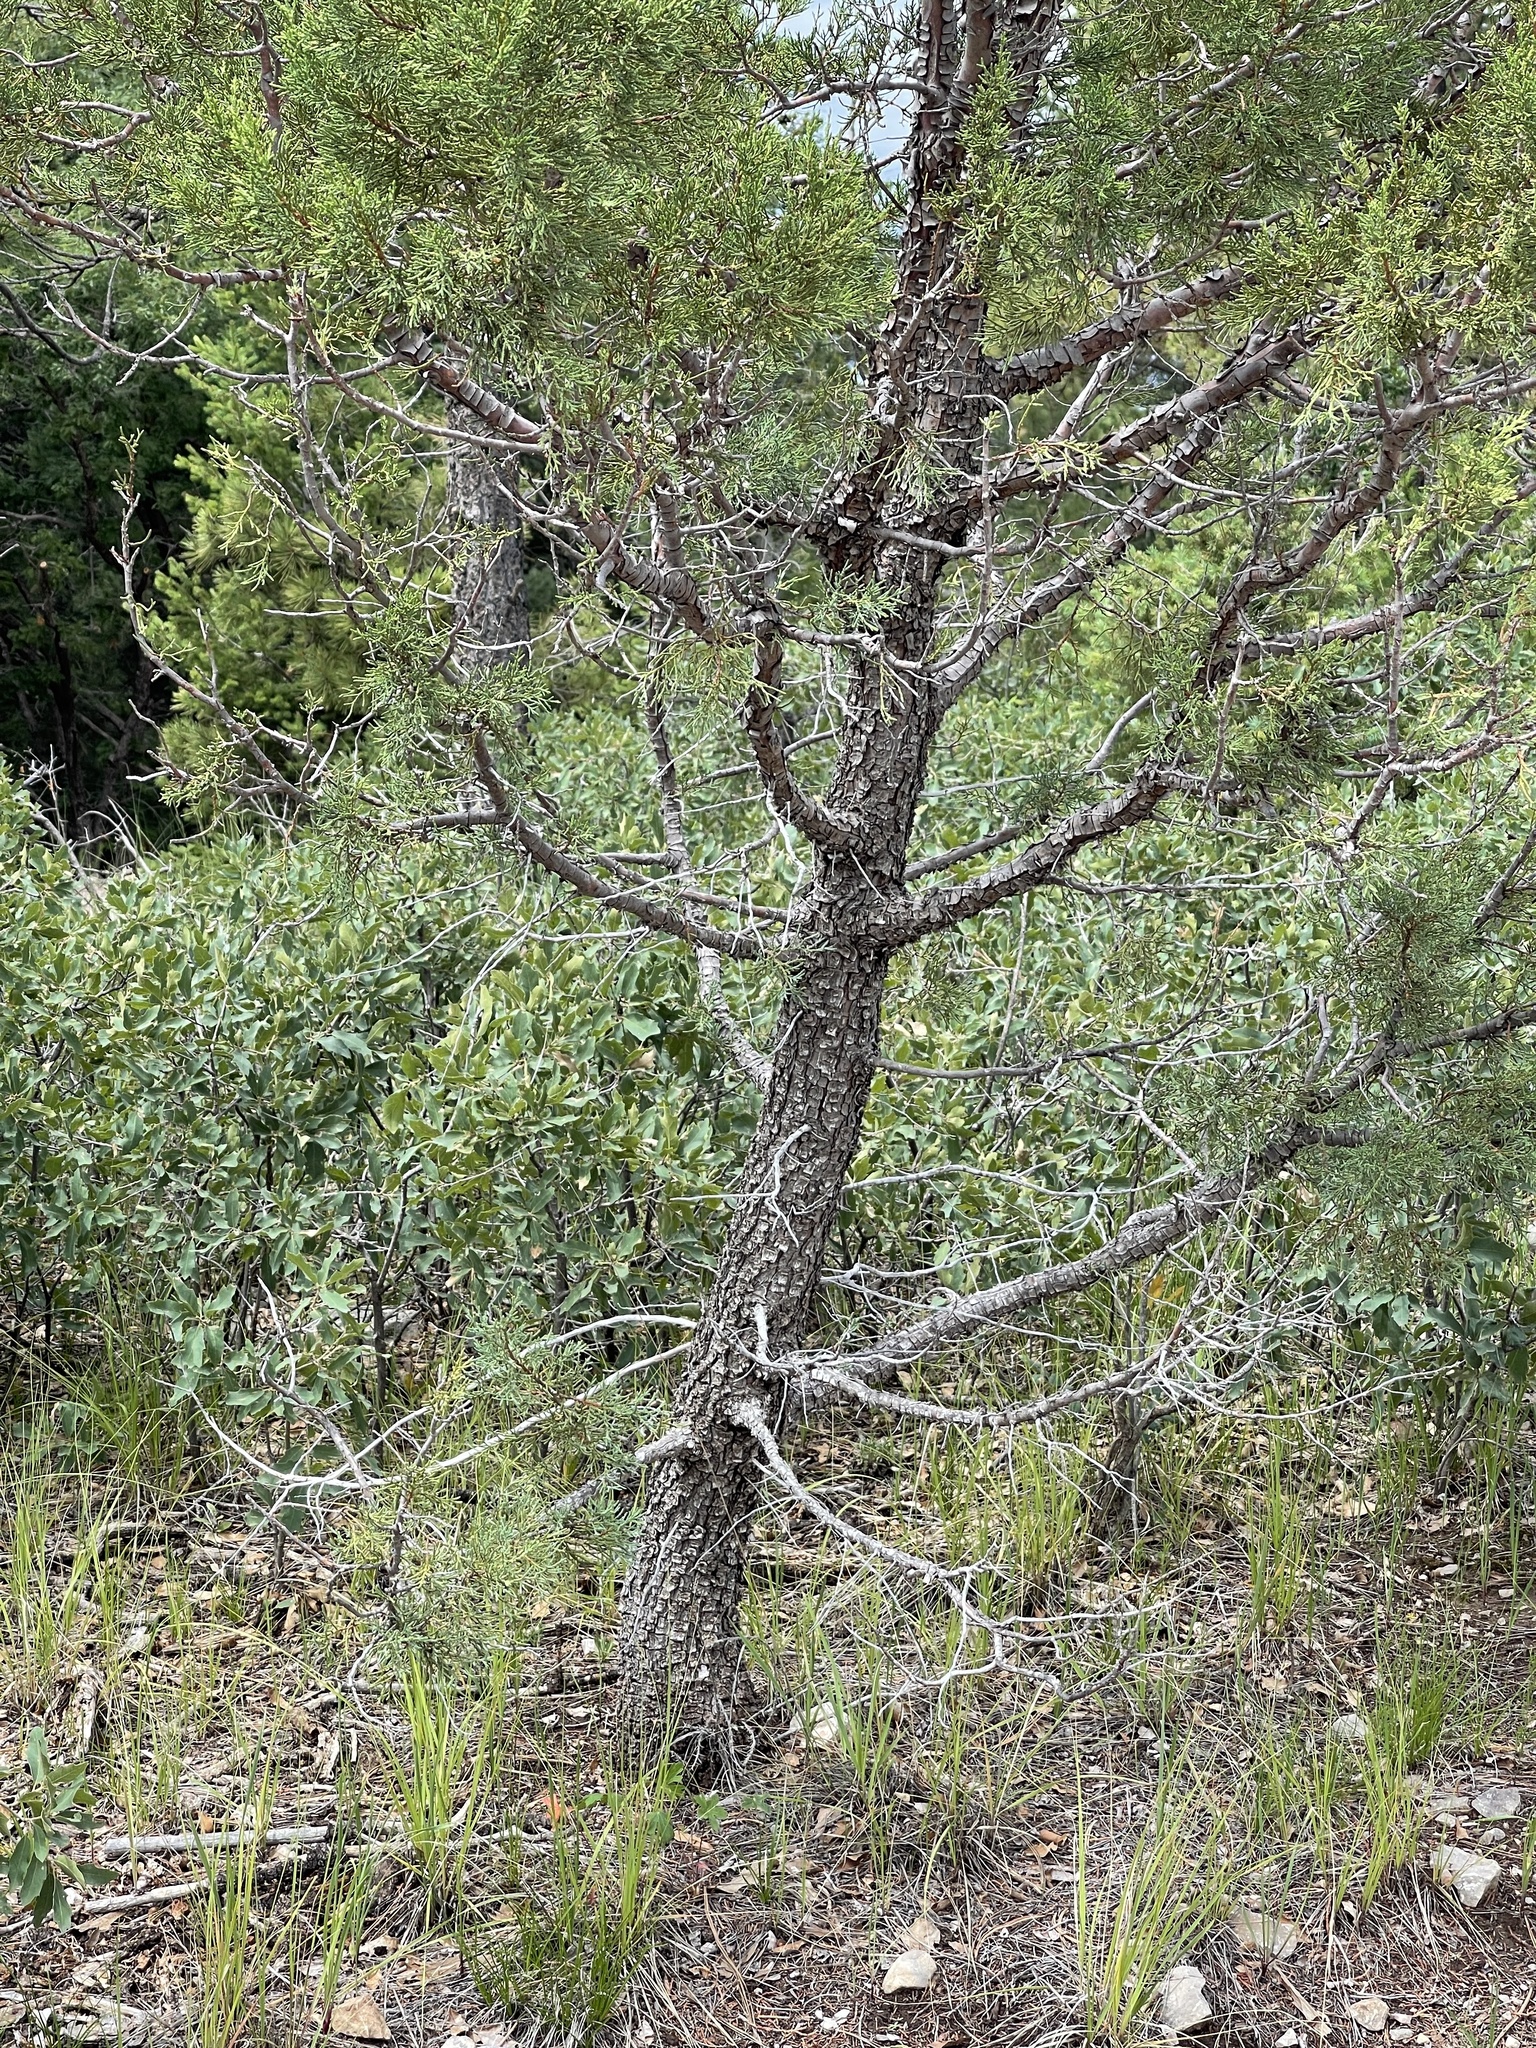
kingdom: Plantae
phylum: Tracheophyta
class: Pinopsida
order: Pinales
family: Cupressaceae
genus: Juniperus
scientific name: Juniperus deppeana
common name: Alligator juniper
